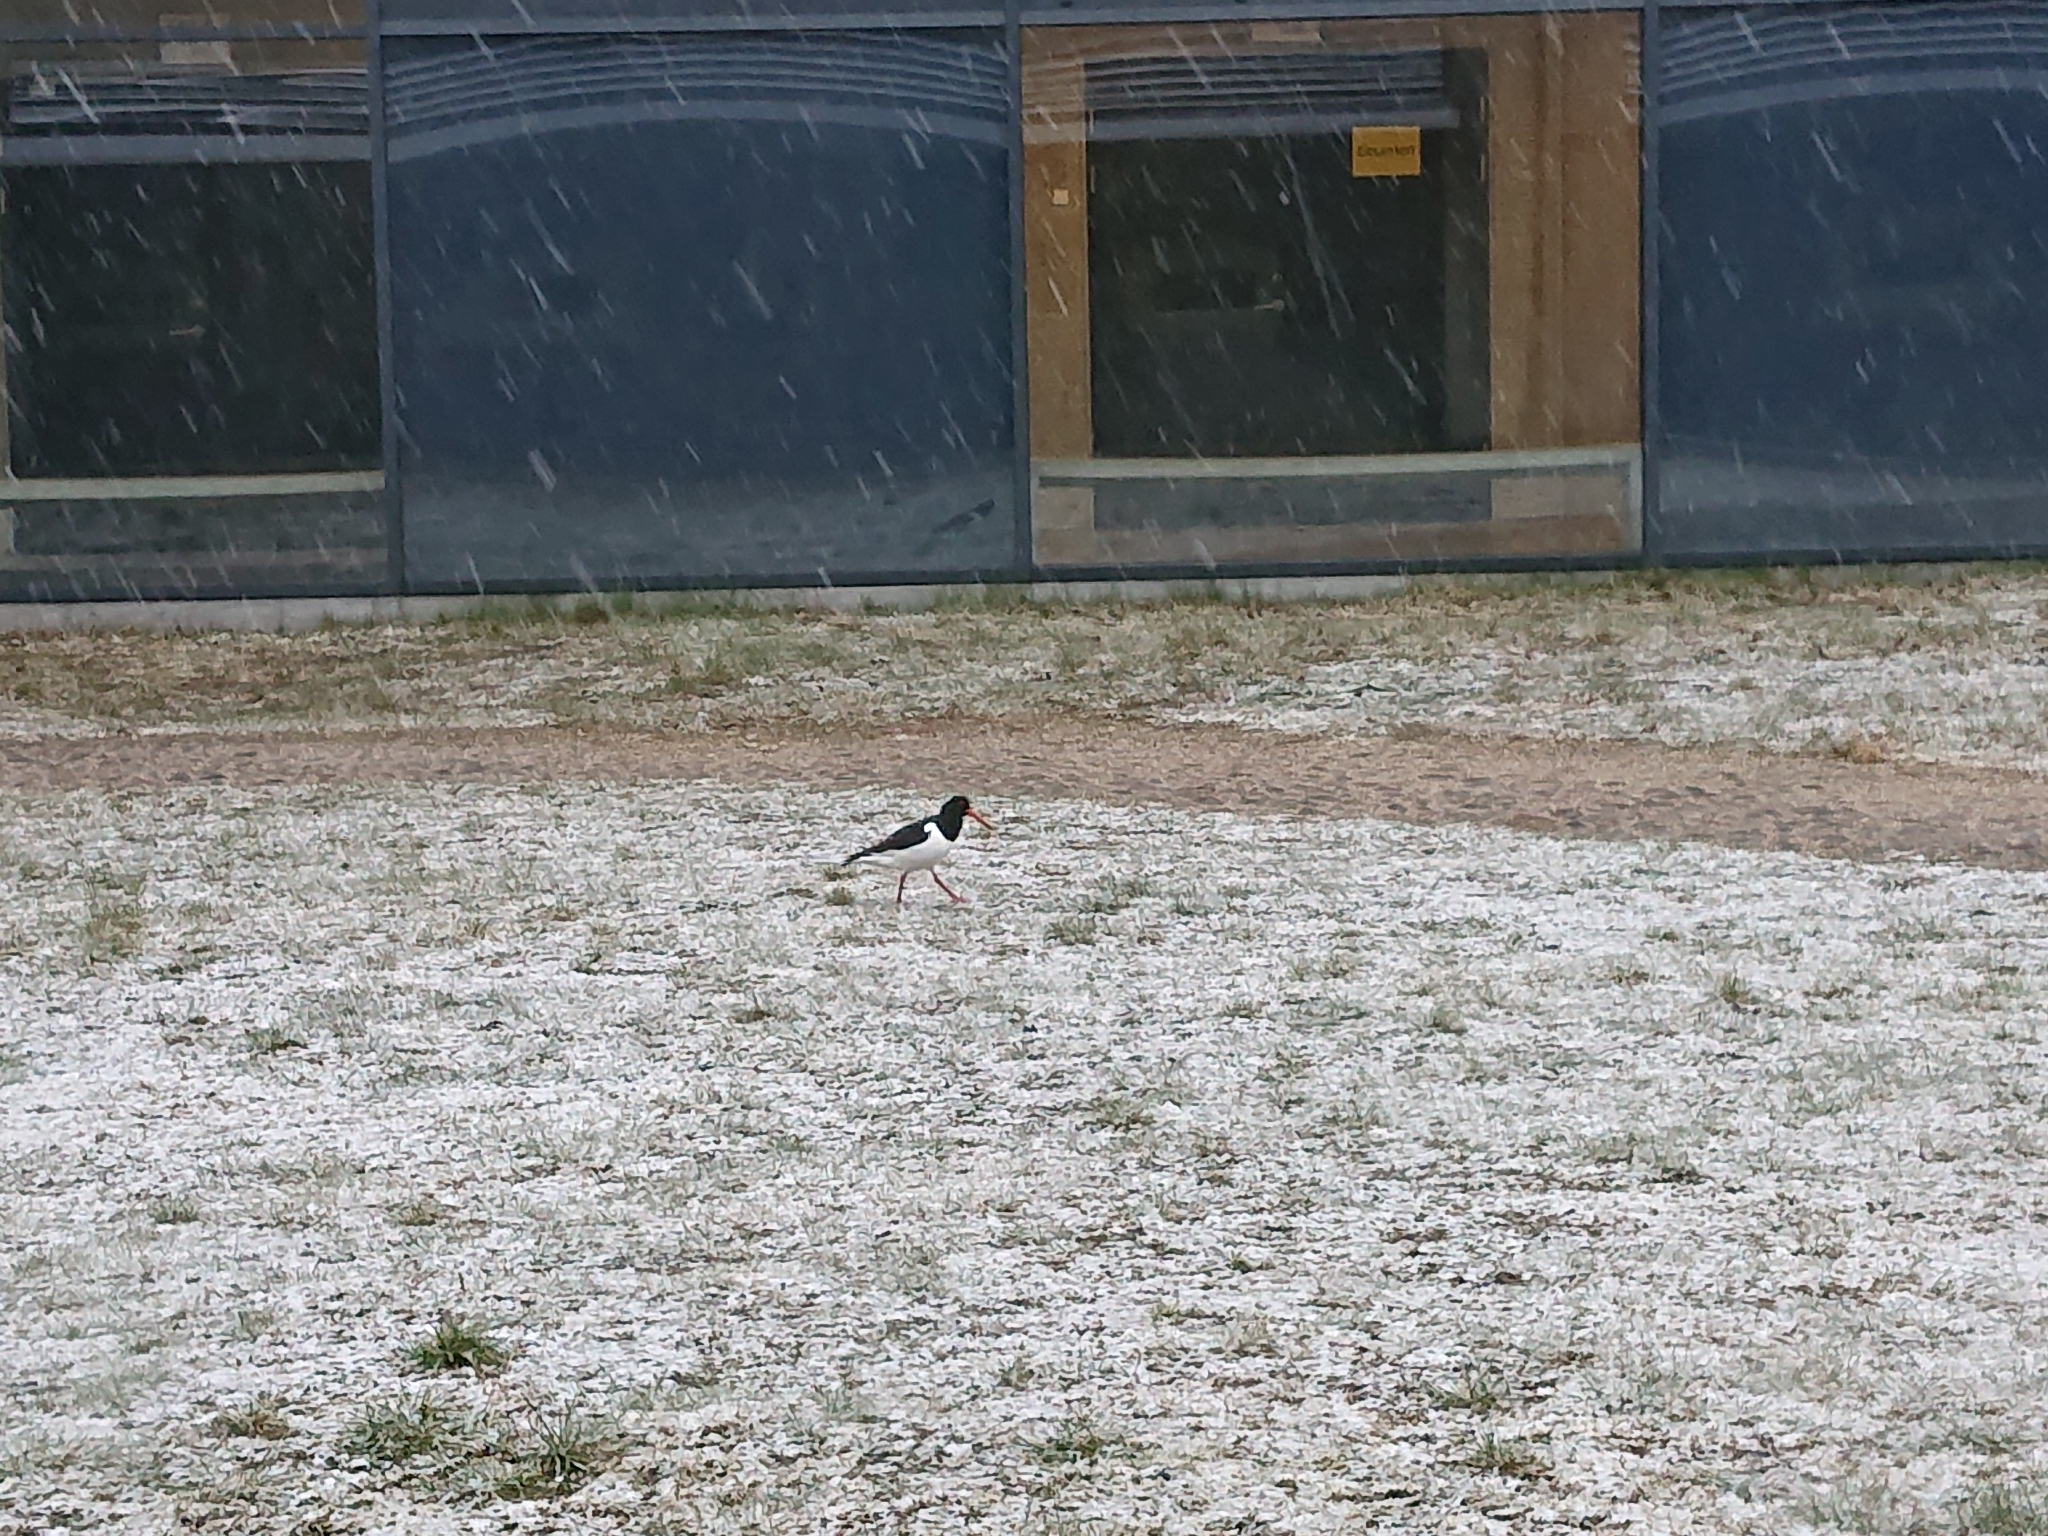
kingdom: Animalia
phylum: Chordata
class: Aves
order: Charadriiformes
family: Haematopodidae
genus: Haematopus
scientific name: Haematopus ostralegus
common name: Eurasian oystercatcher
